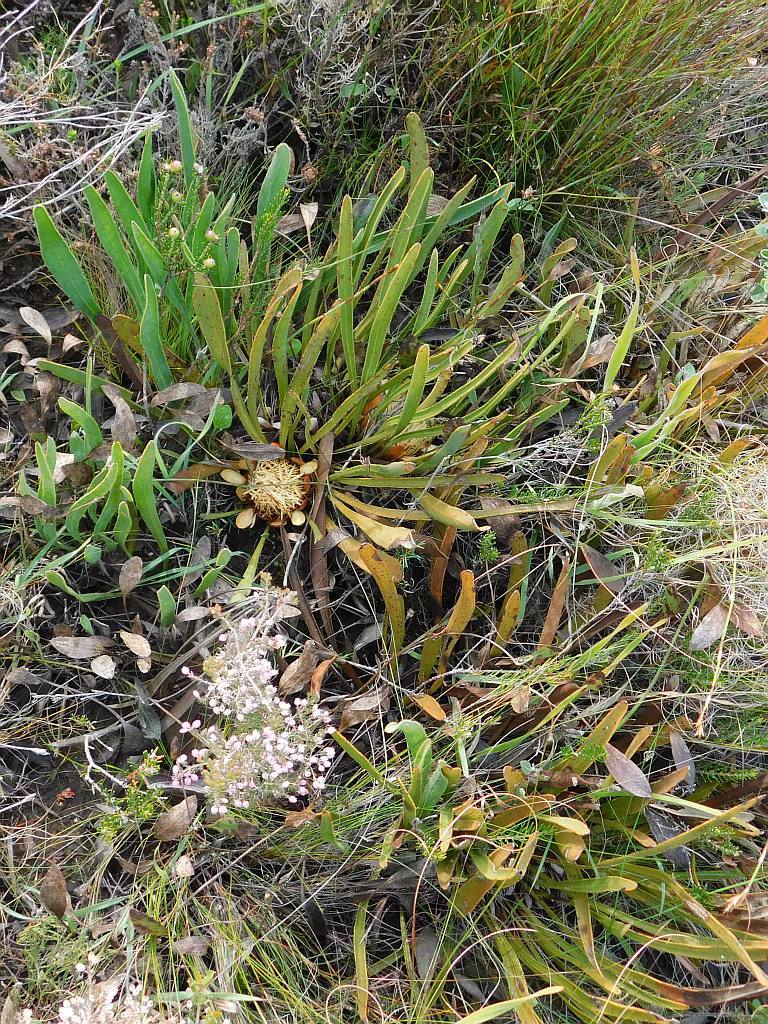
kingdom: Plantae
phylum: Tracheophyta
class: Magnoliopsida
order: Proteales
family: Proteaceae
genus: Protea
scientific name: Protea scabra
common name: Sandpaper-leaf sugarbush
